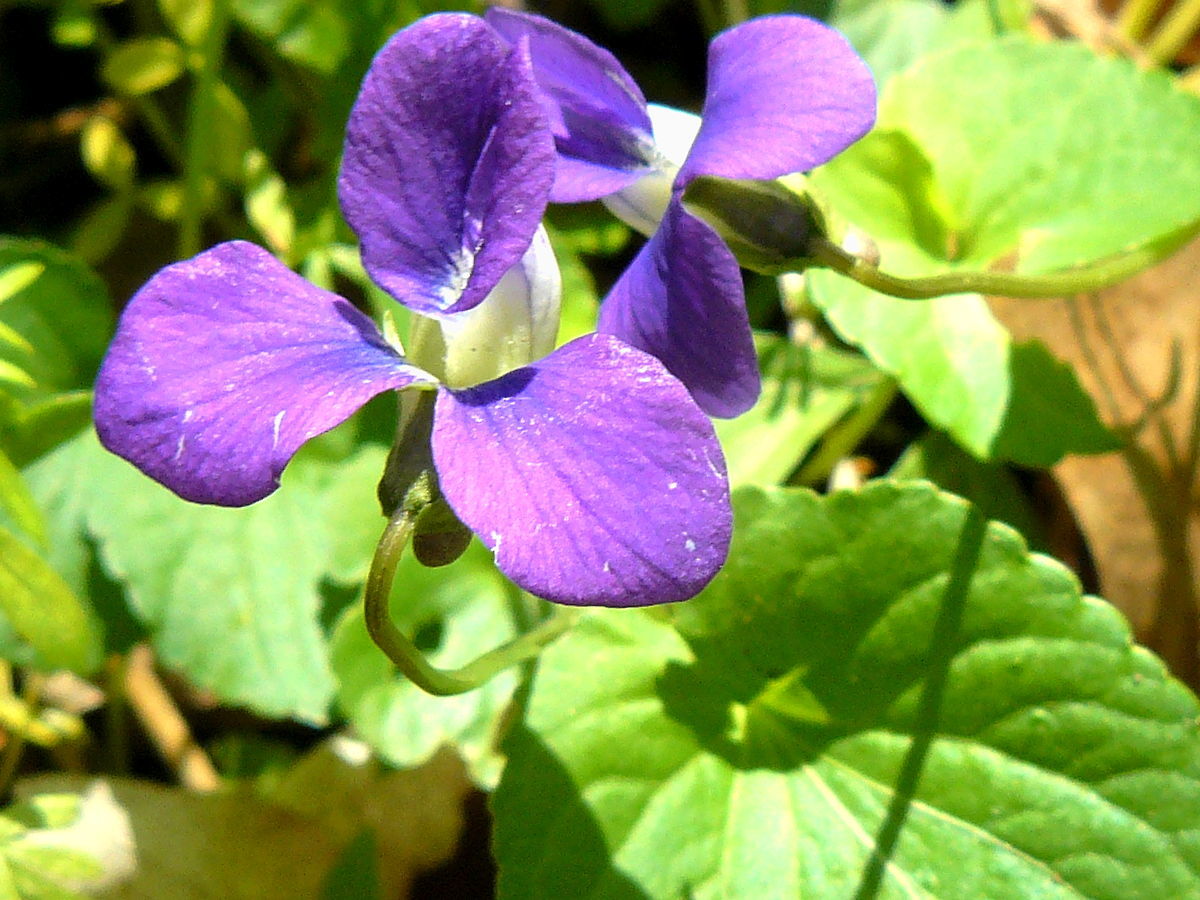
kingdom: Plantae
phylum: Tracheophyta
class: Magnoliopsida
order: Malpighiales
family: Violaceae
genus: Viola
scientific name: Viola sororia
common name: Dooryard violet
